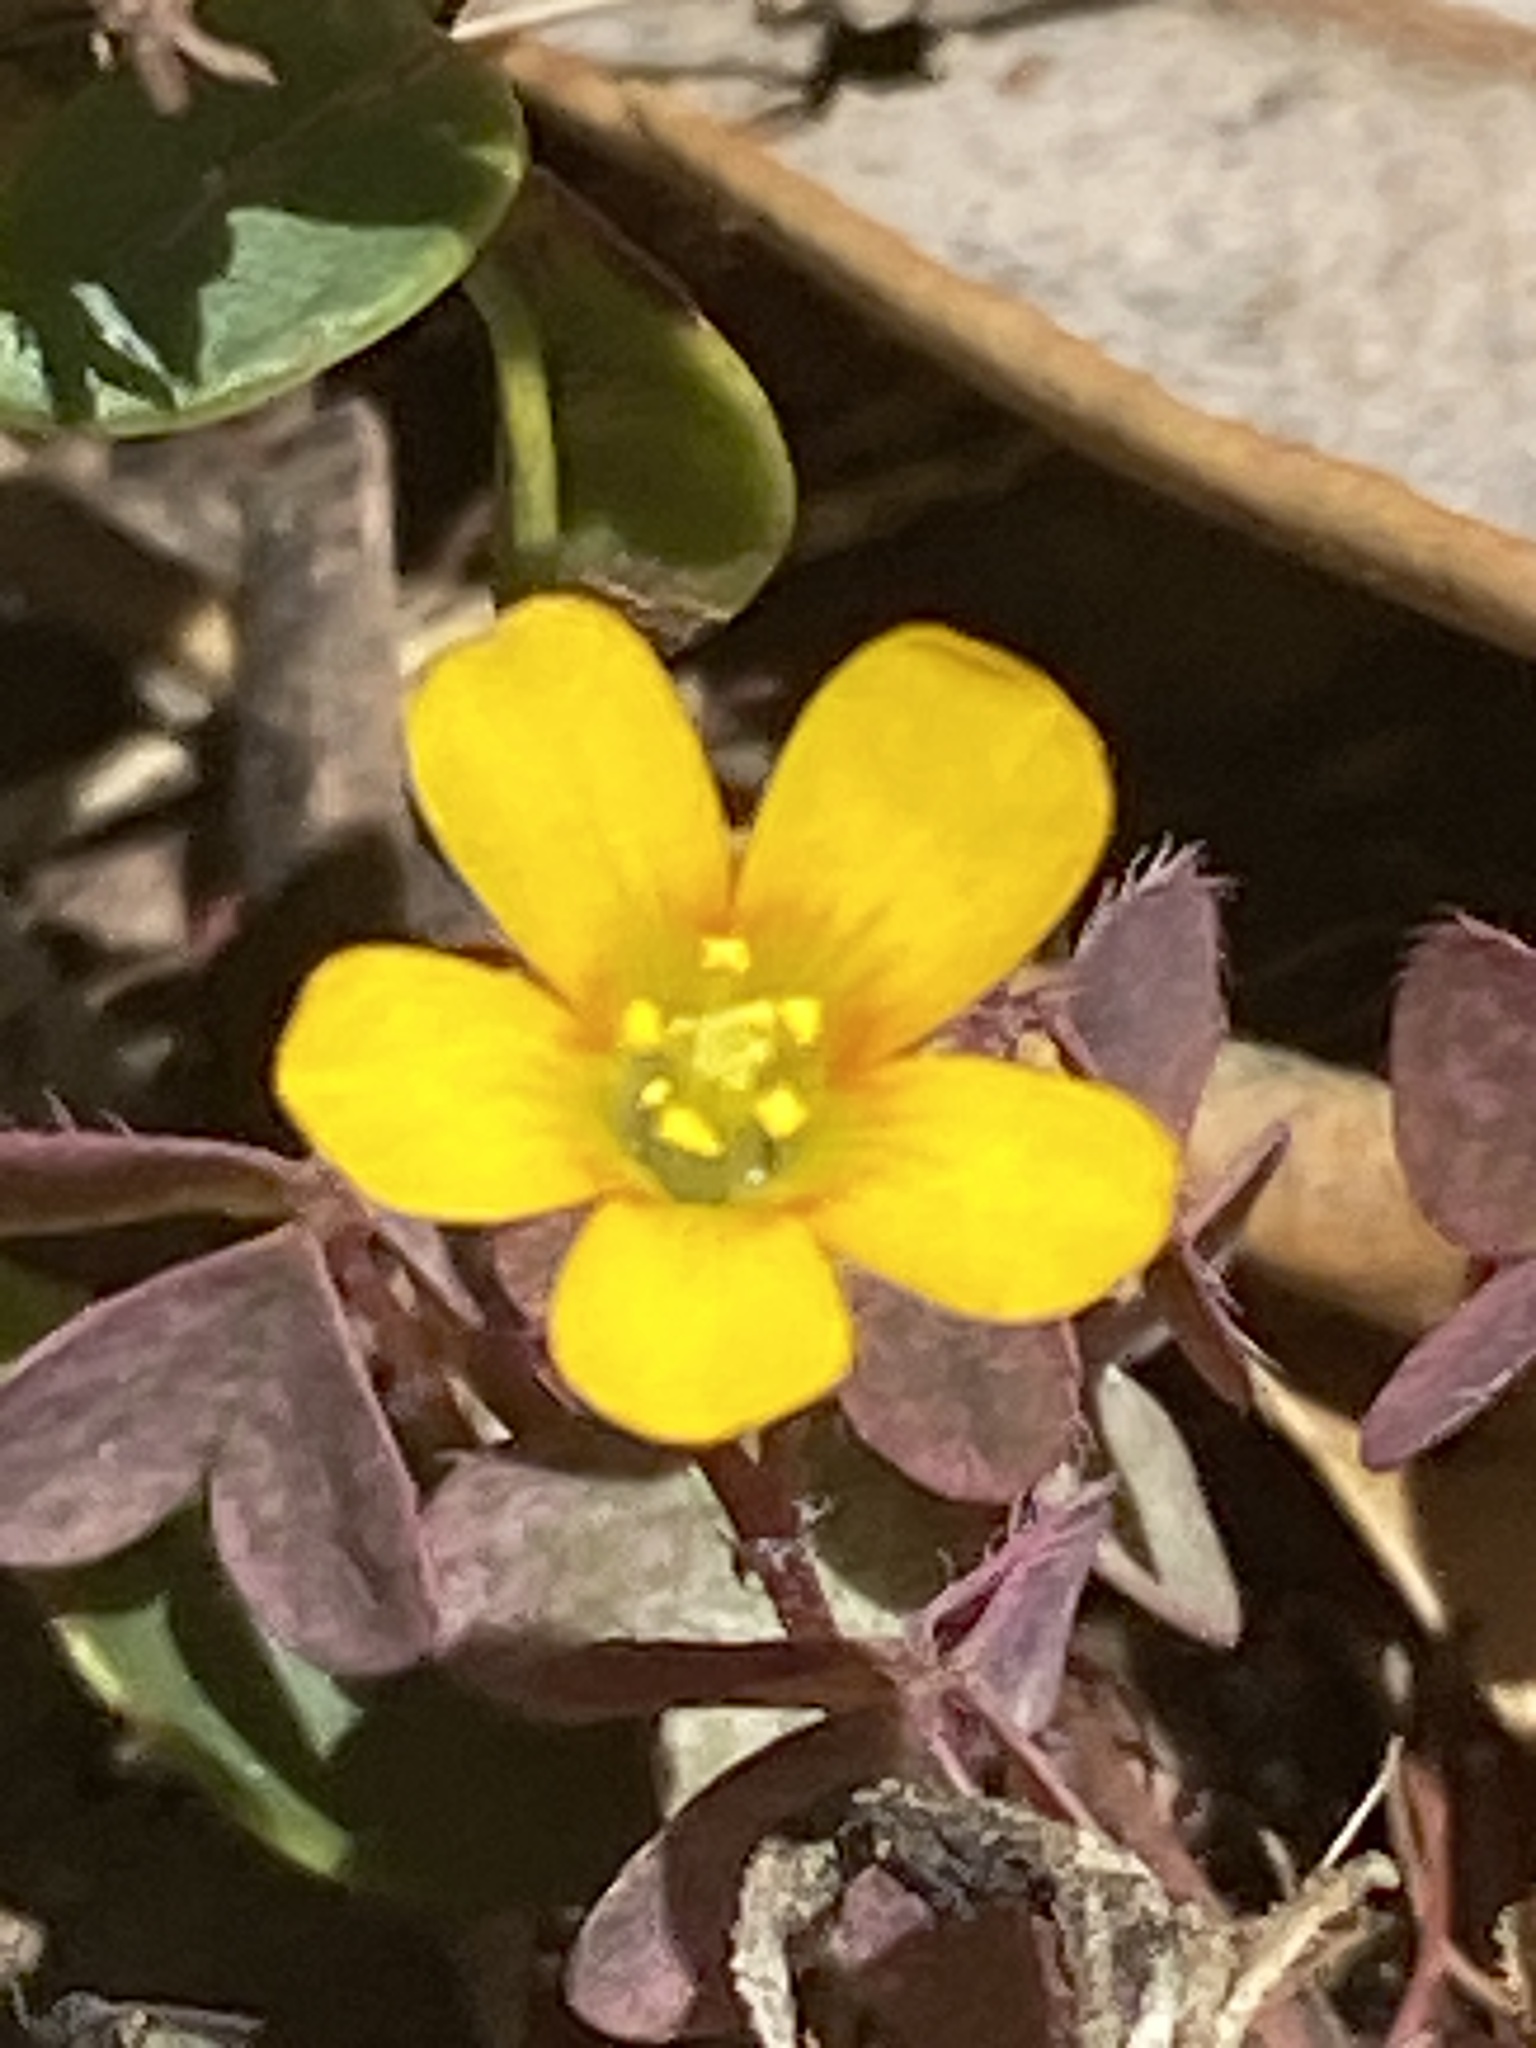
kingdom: Plantae
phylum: Tracheophyta
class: Magnoliopsida
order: Oxalidales
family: Oxalidaceae
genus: Oxalis
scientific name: Oxalis corniculata
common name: Procumbent yellow-sorrel
